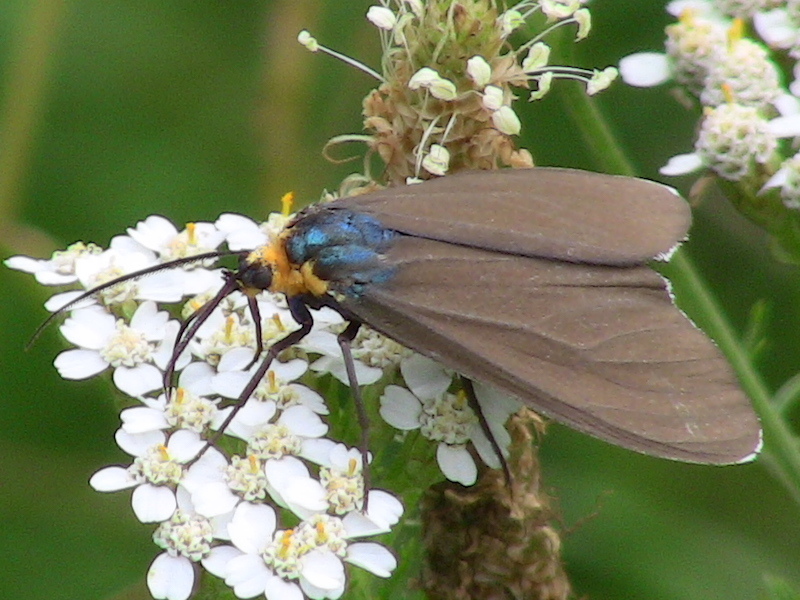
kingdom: Animalia
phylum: Arthropoda
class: Insecta
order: Lepidoptera
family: Erebidae
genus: Ctenucha
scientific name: Ctenucha virginica
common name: Virginia ctenucha moth
